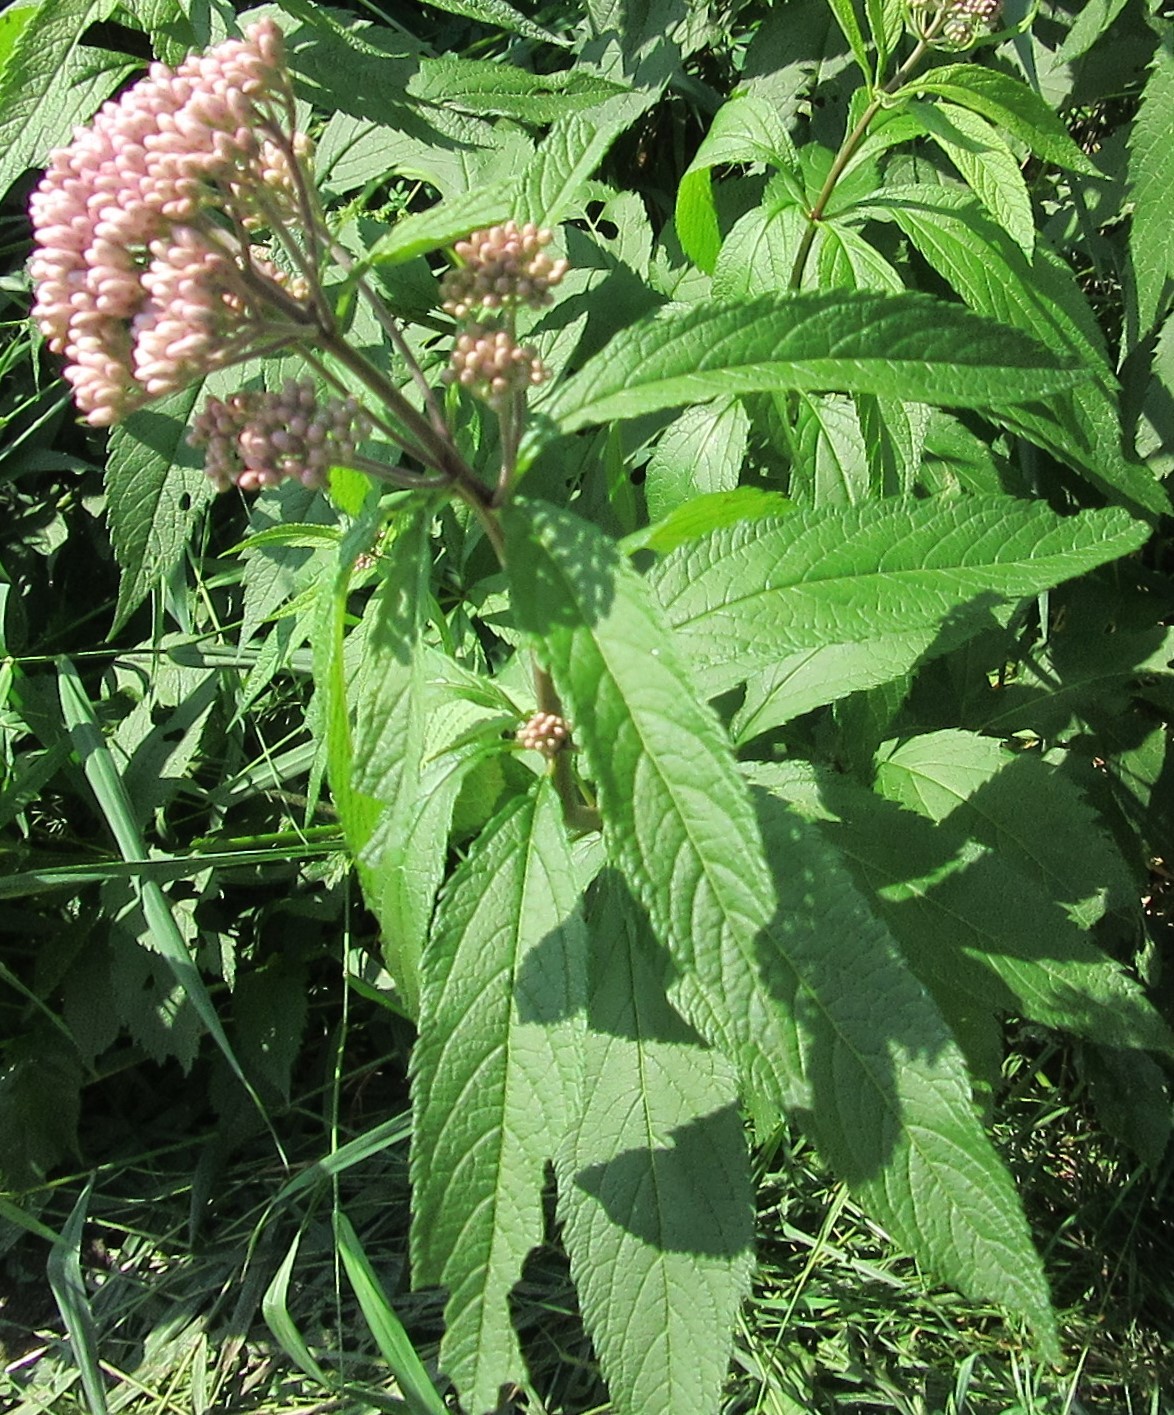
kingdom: Plantae
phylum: Tracheophyta
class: Magnoliopsida
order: Asterales
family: Asteraceae
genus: Eutrochium
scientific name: Eutrochium maculatum
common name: Spotted joe pye weed
